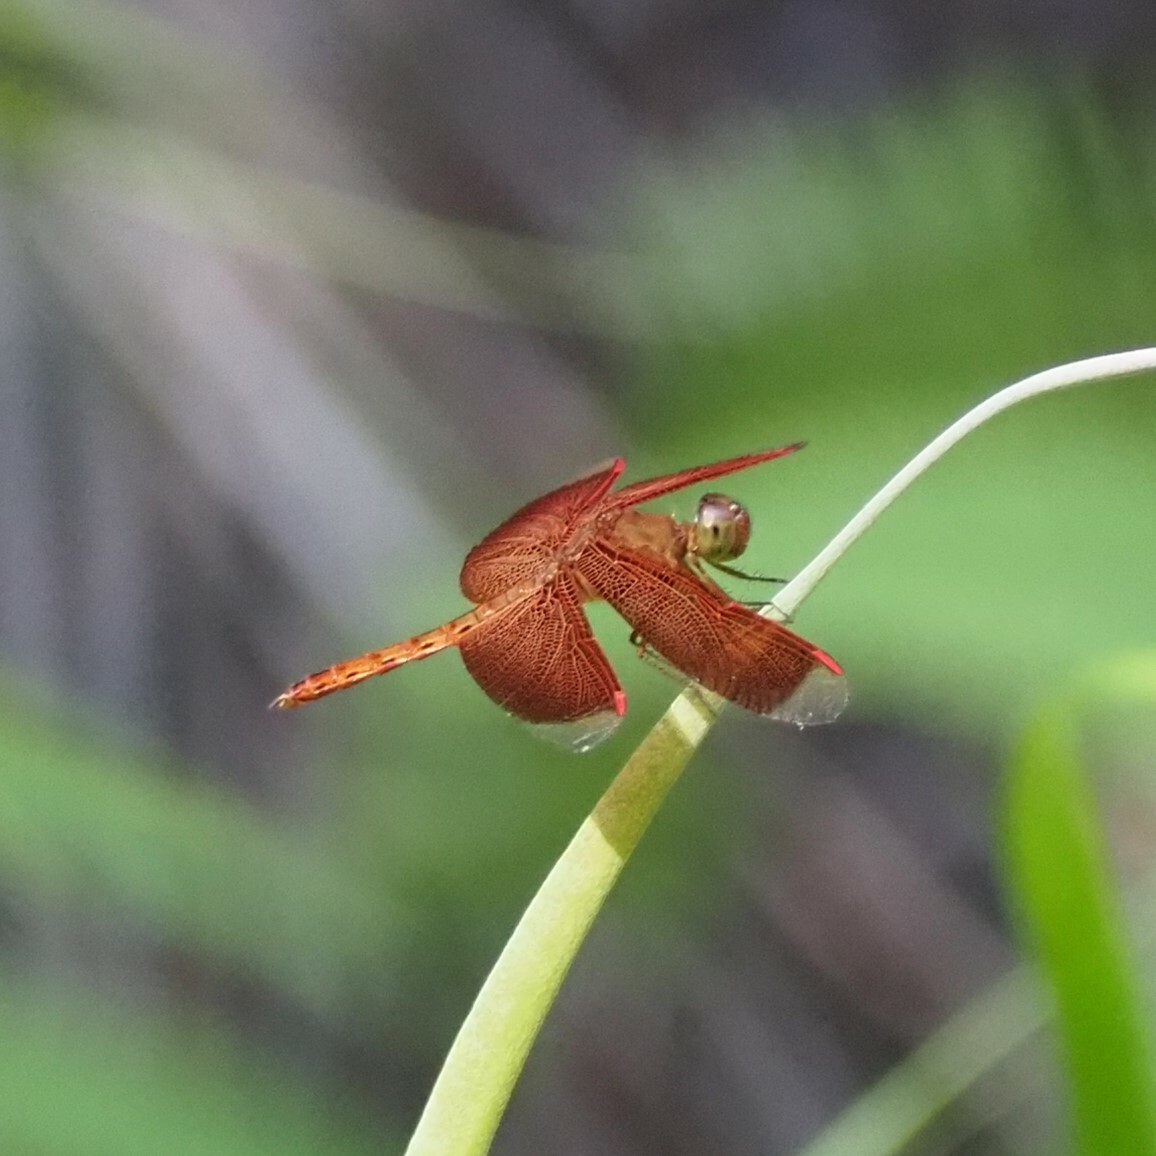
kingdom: Animalia
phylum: Arthropoda
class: Insecta
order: Odonata
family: Libellulidae
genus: Neurothemis
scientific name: Neurothemis fluctuans
